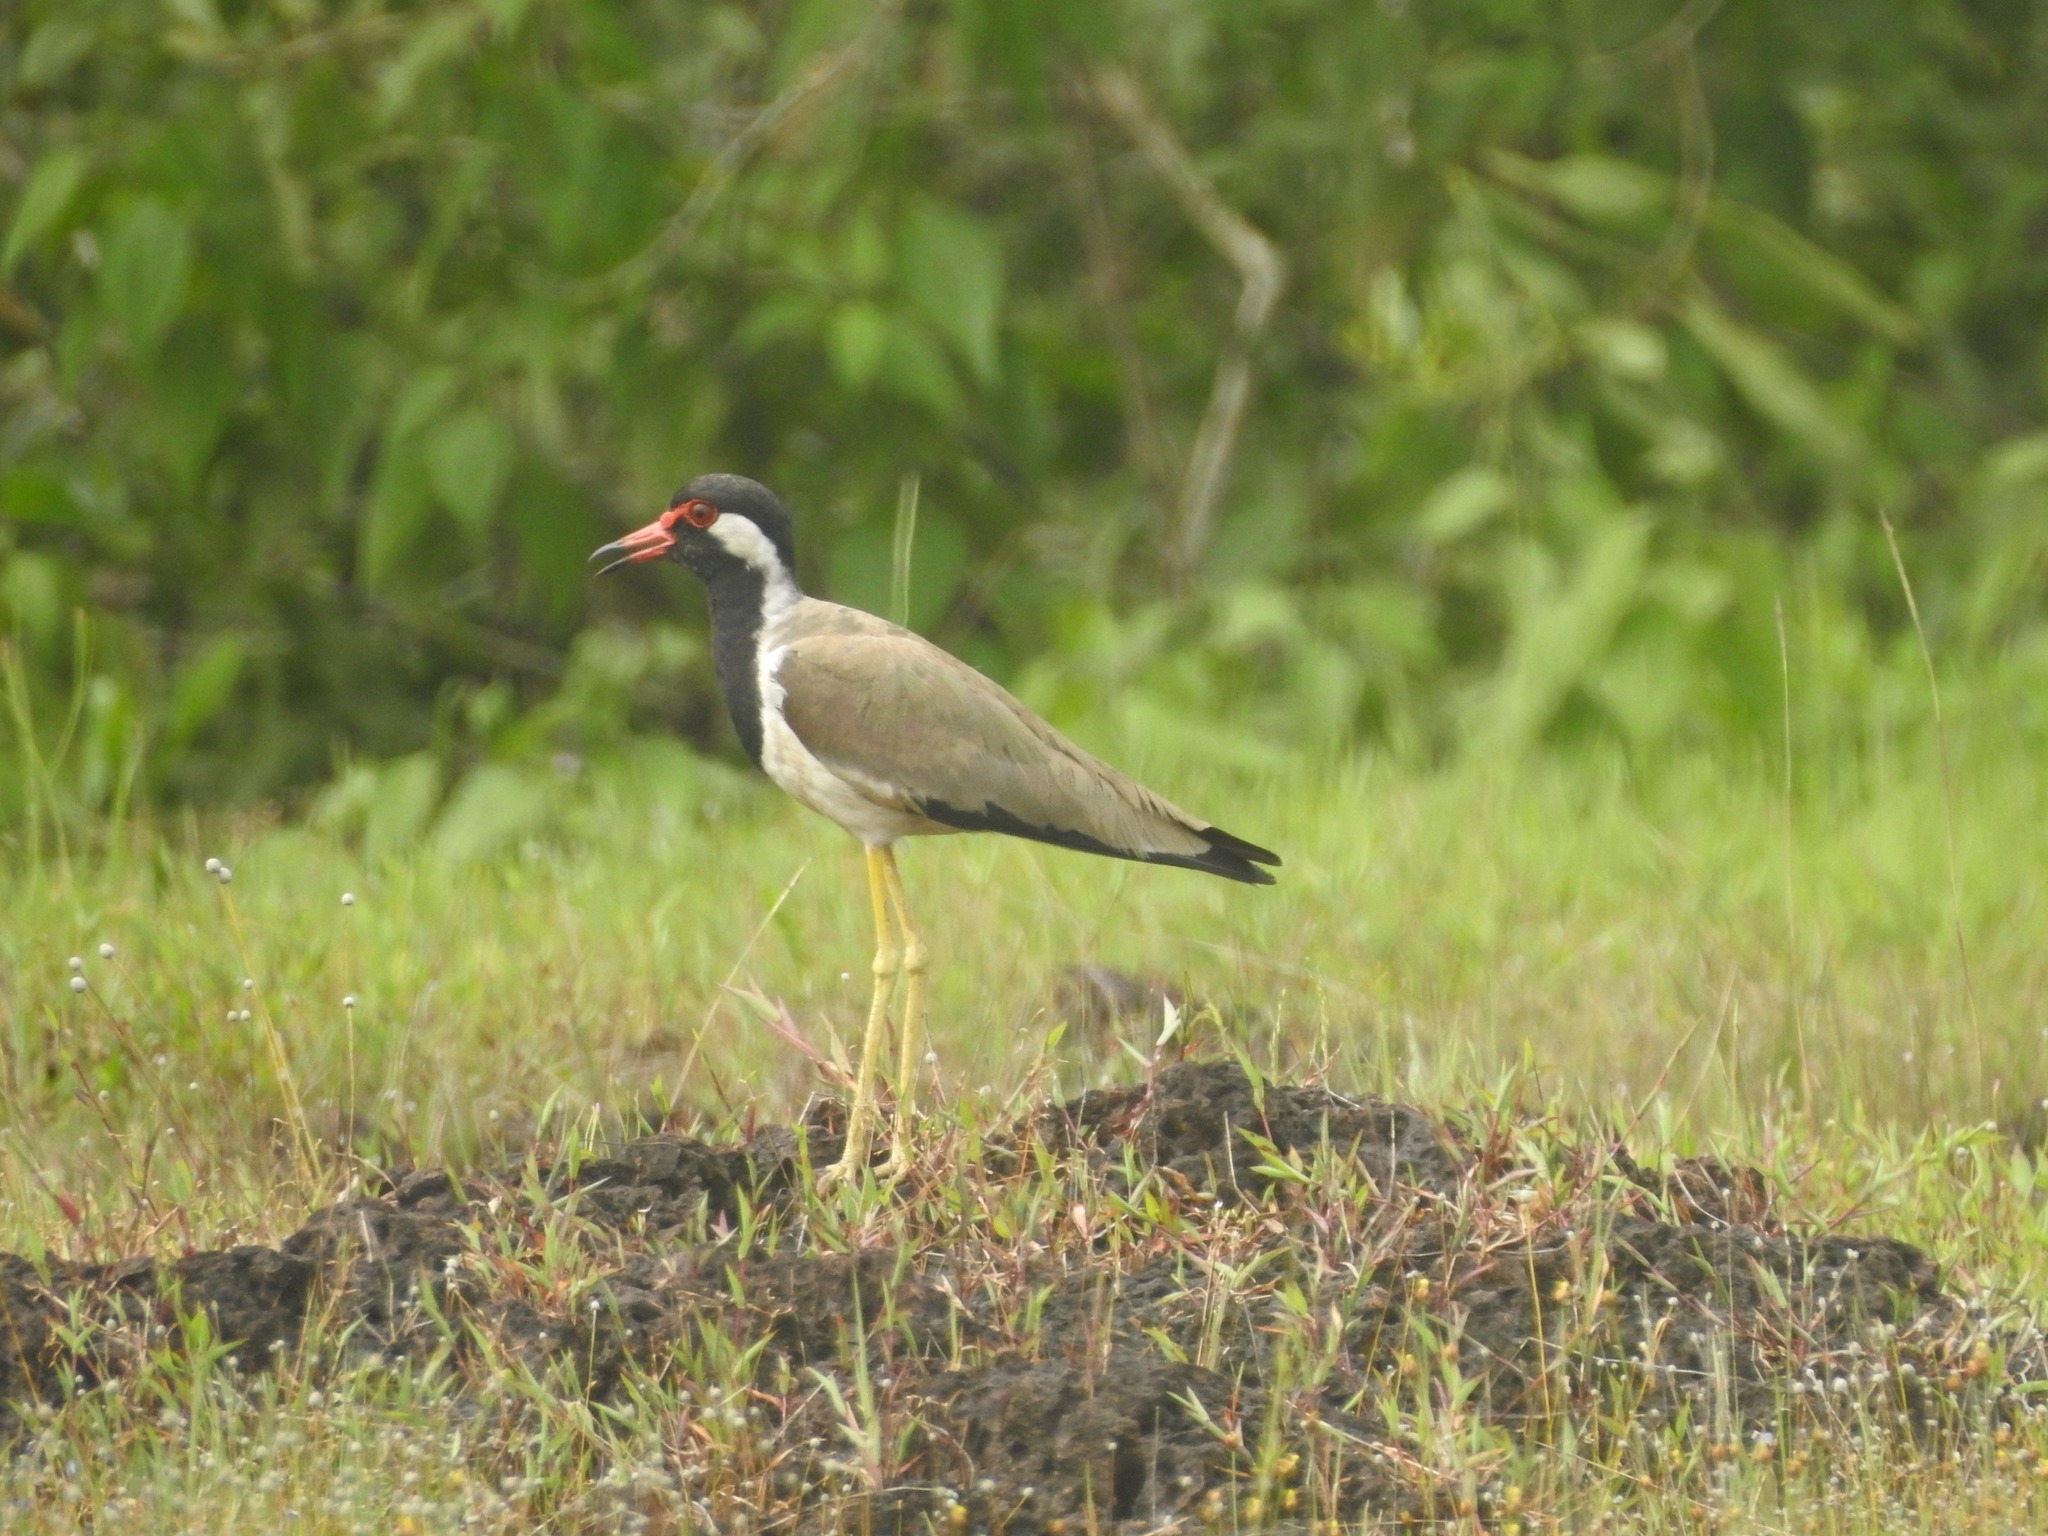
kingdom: Animalia
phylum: Chordata
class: Aves
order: Charadriiformes
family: Charadriidae
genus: Vanellus
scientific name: Vanellus indicus
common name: Red-wattled lapwing
